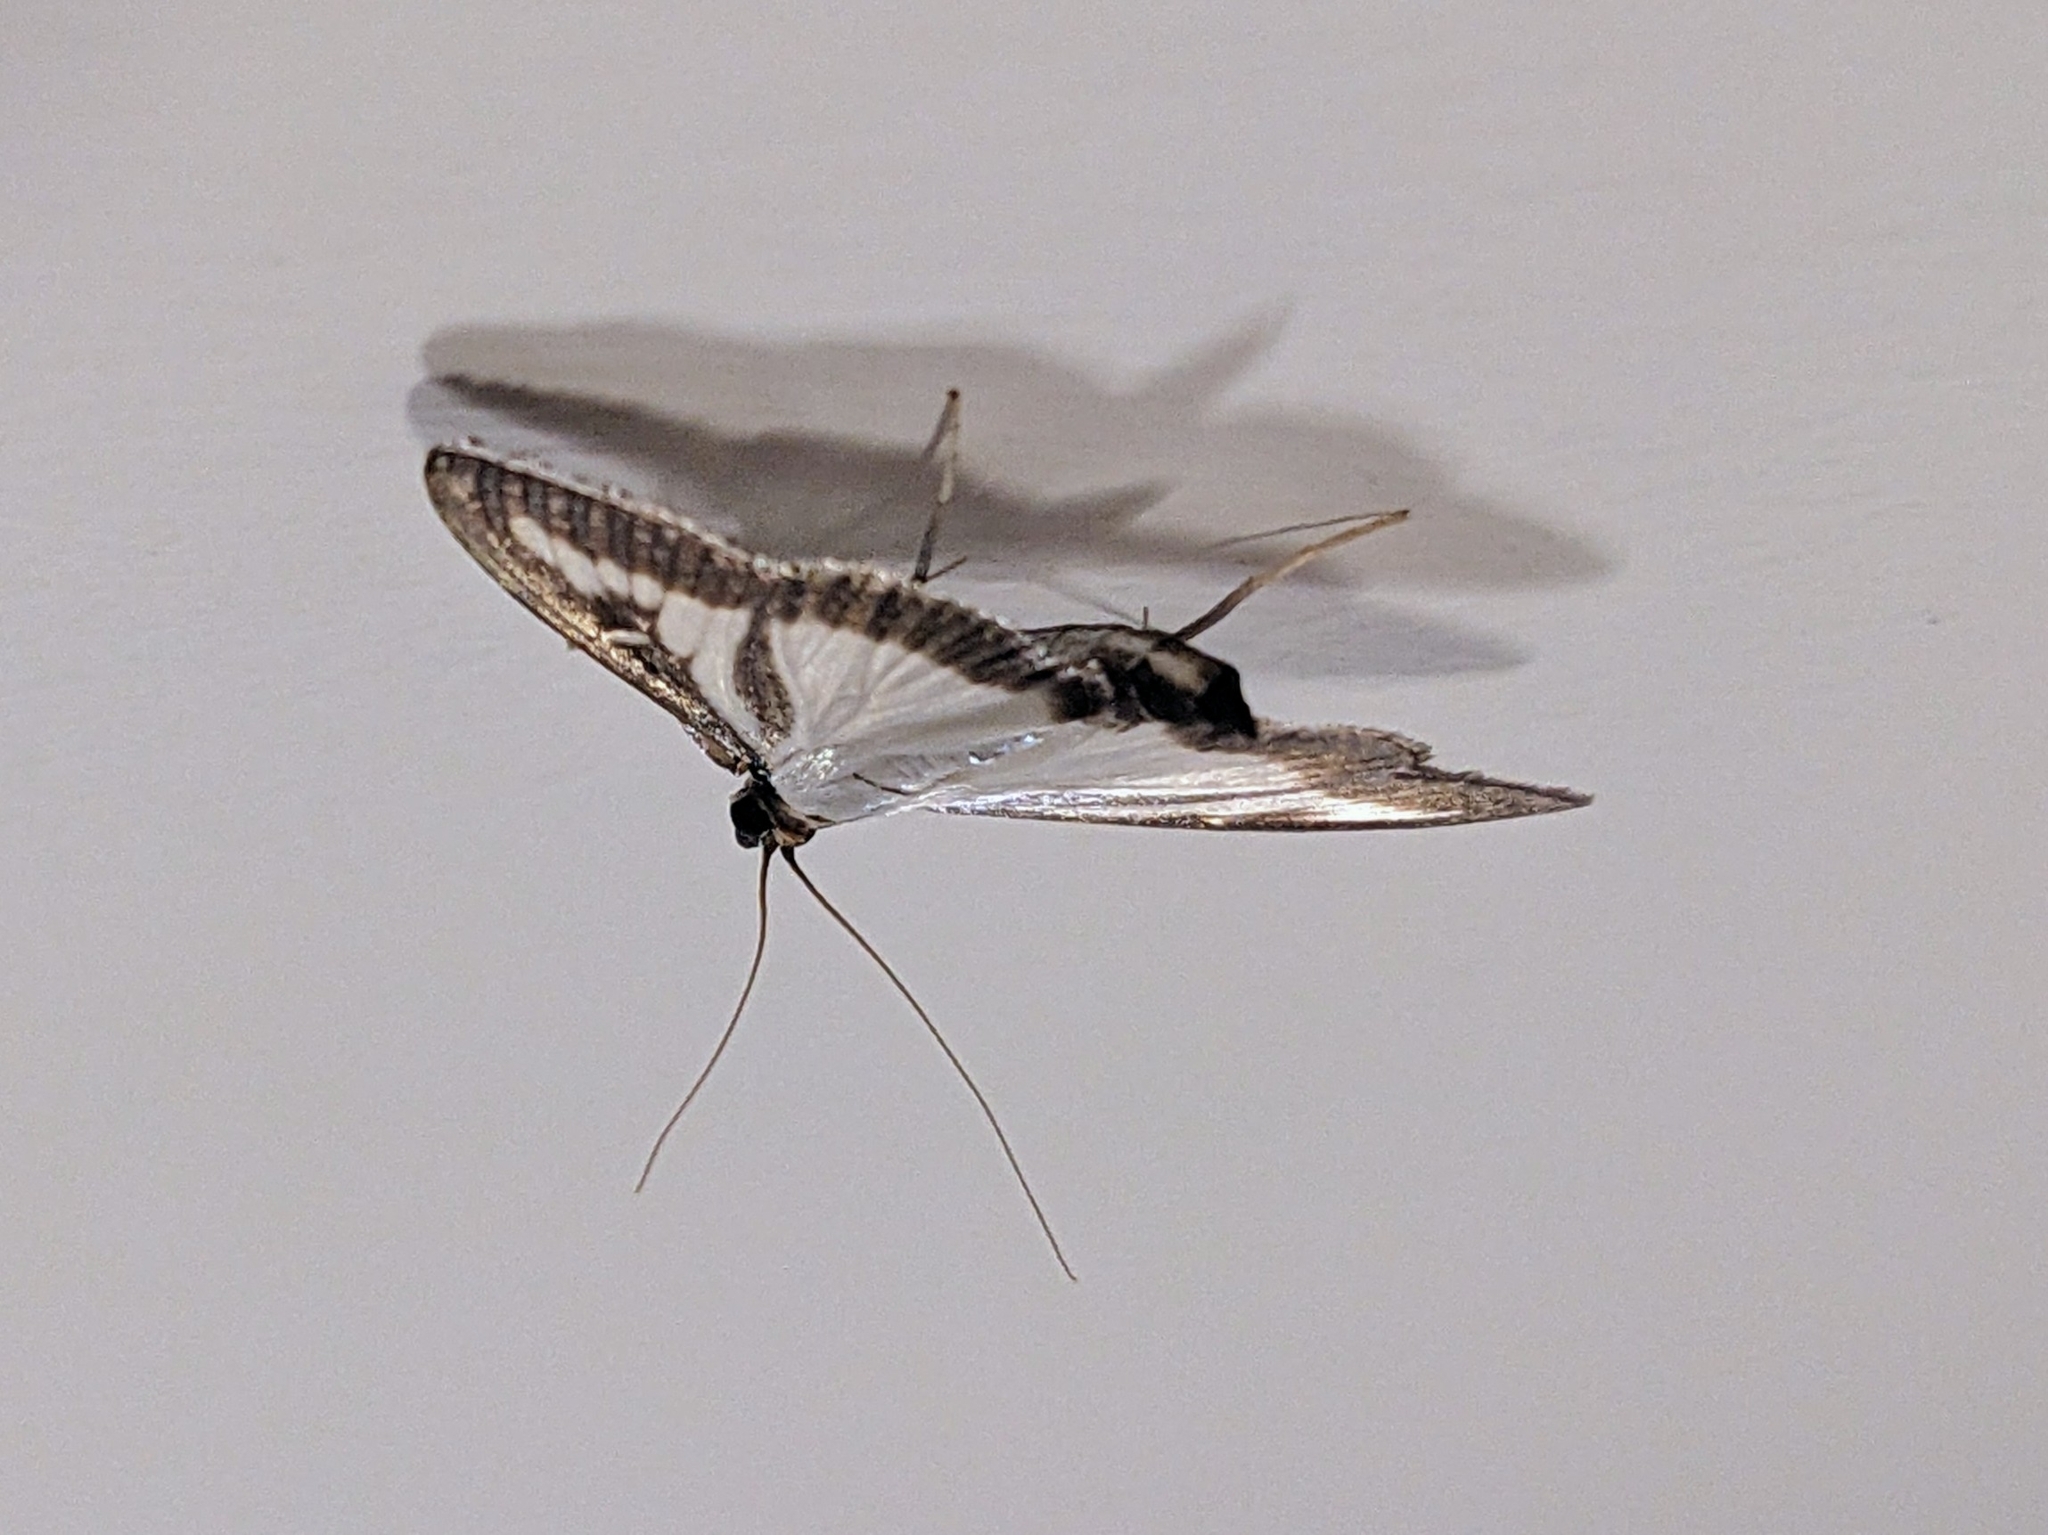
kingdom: Animalia
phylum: Arthropoda
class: Insecta
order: Lepidoptera
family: Crambidae
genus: Cydalima
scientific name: Cydalima perspectalis
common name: Box tree moth
